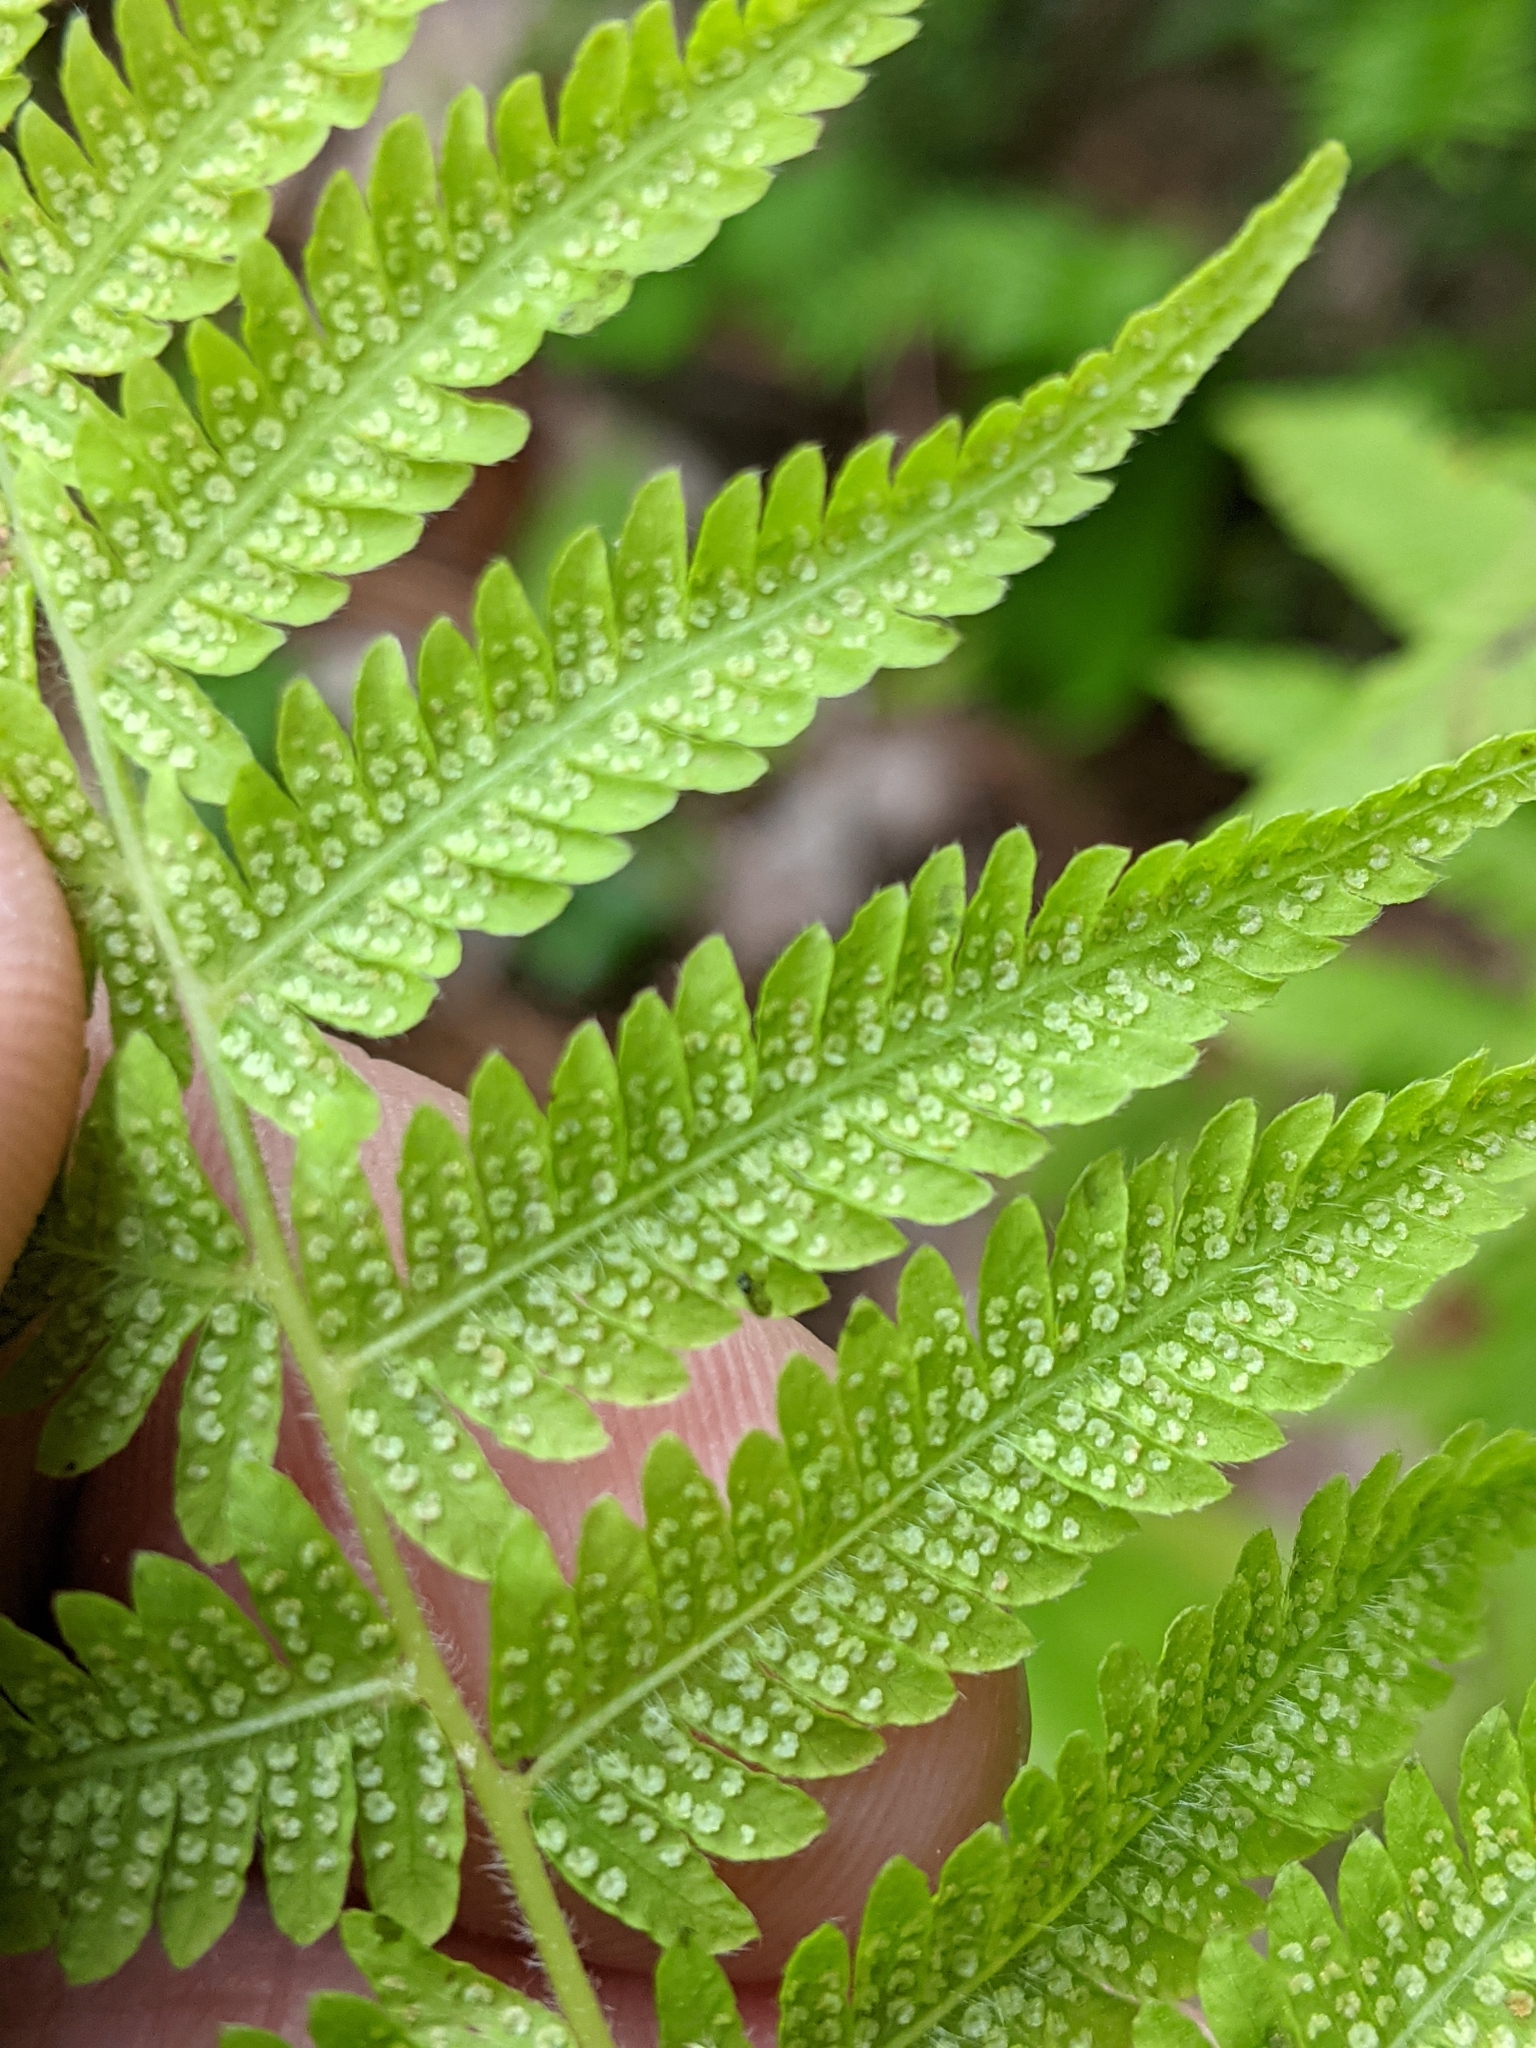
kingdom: Plantae
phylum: Tracheophyta
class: Polypodiopsida
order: Polypodiales
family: Thelypteridaceae
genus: Amauropelta
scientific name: Amauropelta noveboracensis
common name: New york fern
